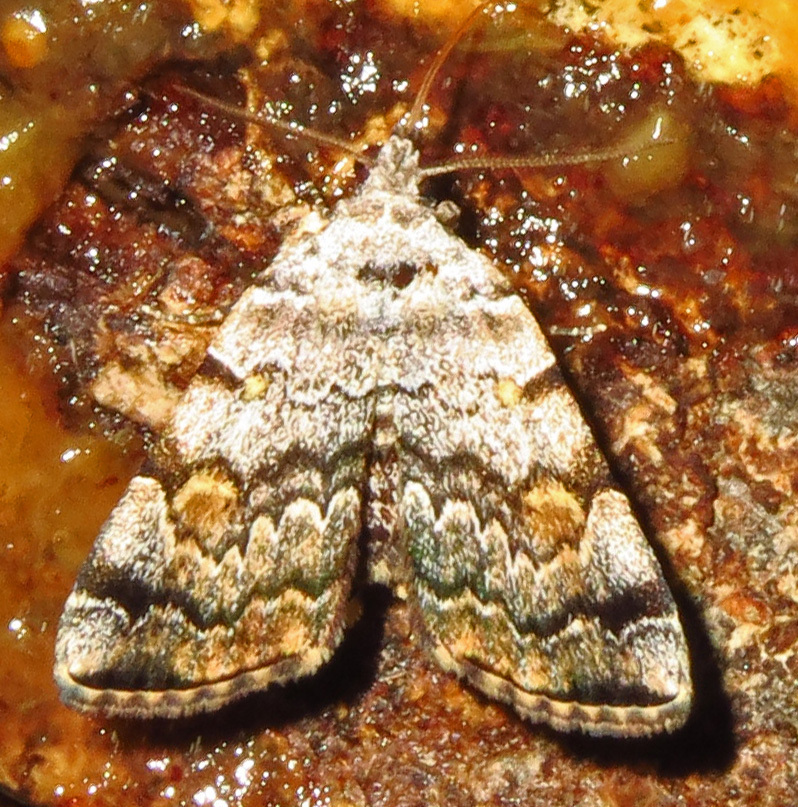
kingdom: Animalia
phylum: Arthropoda
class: Insecta
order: Lepidoptera
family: Erebidae
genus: Idia
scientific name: Idia americalis
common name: American idia moth
